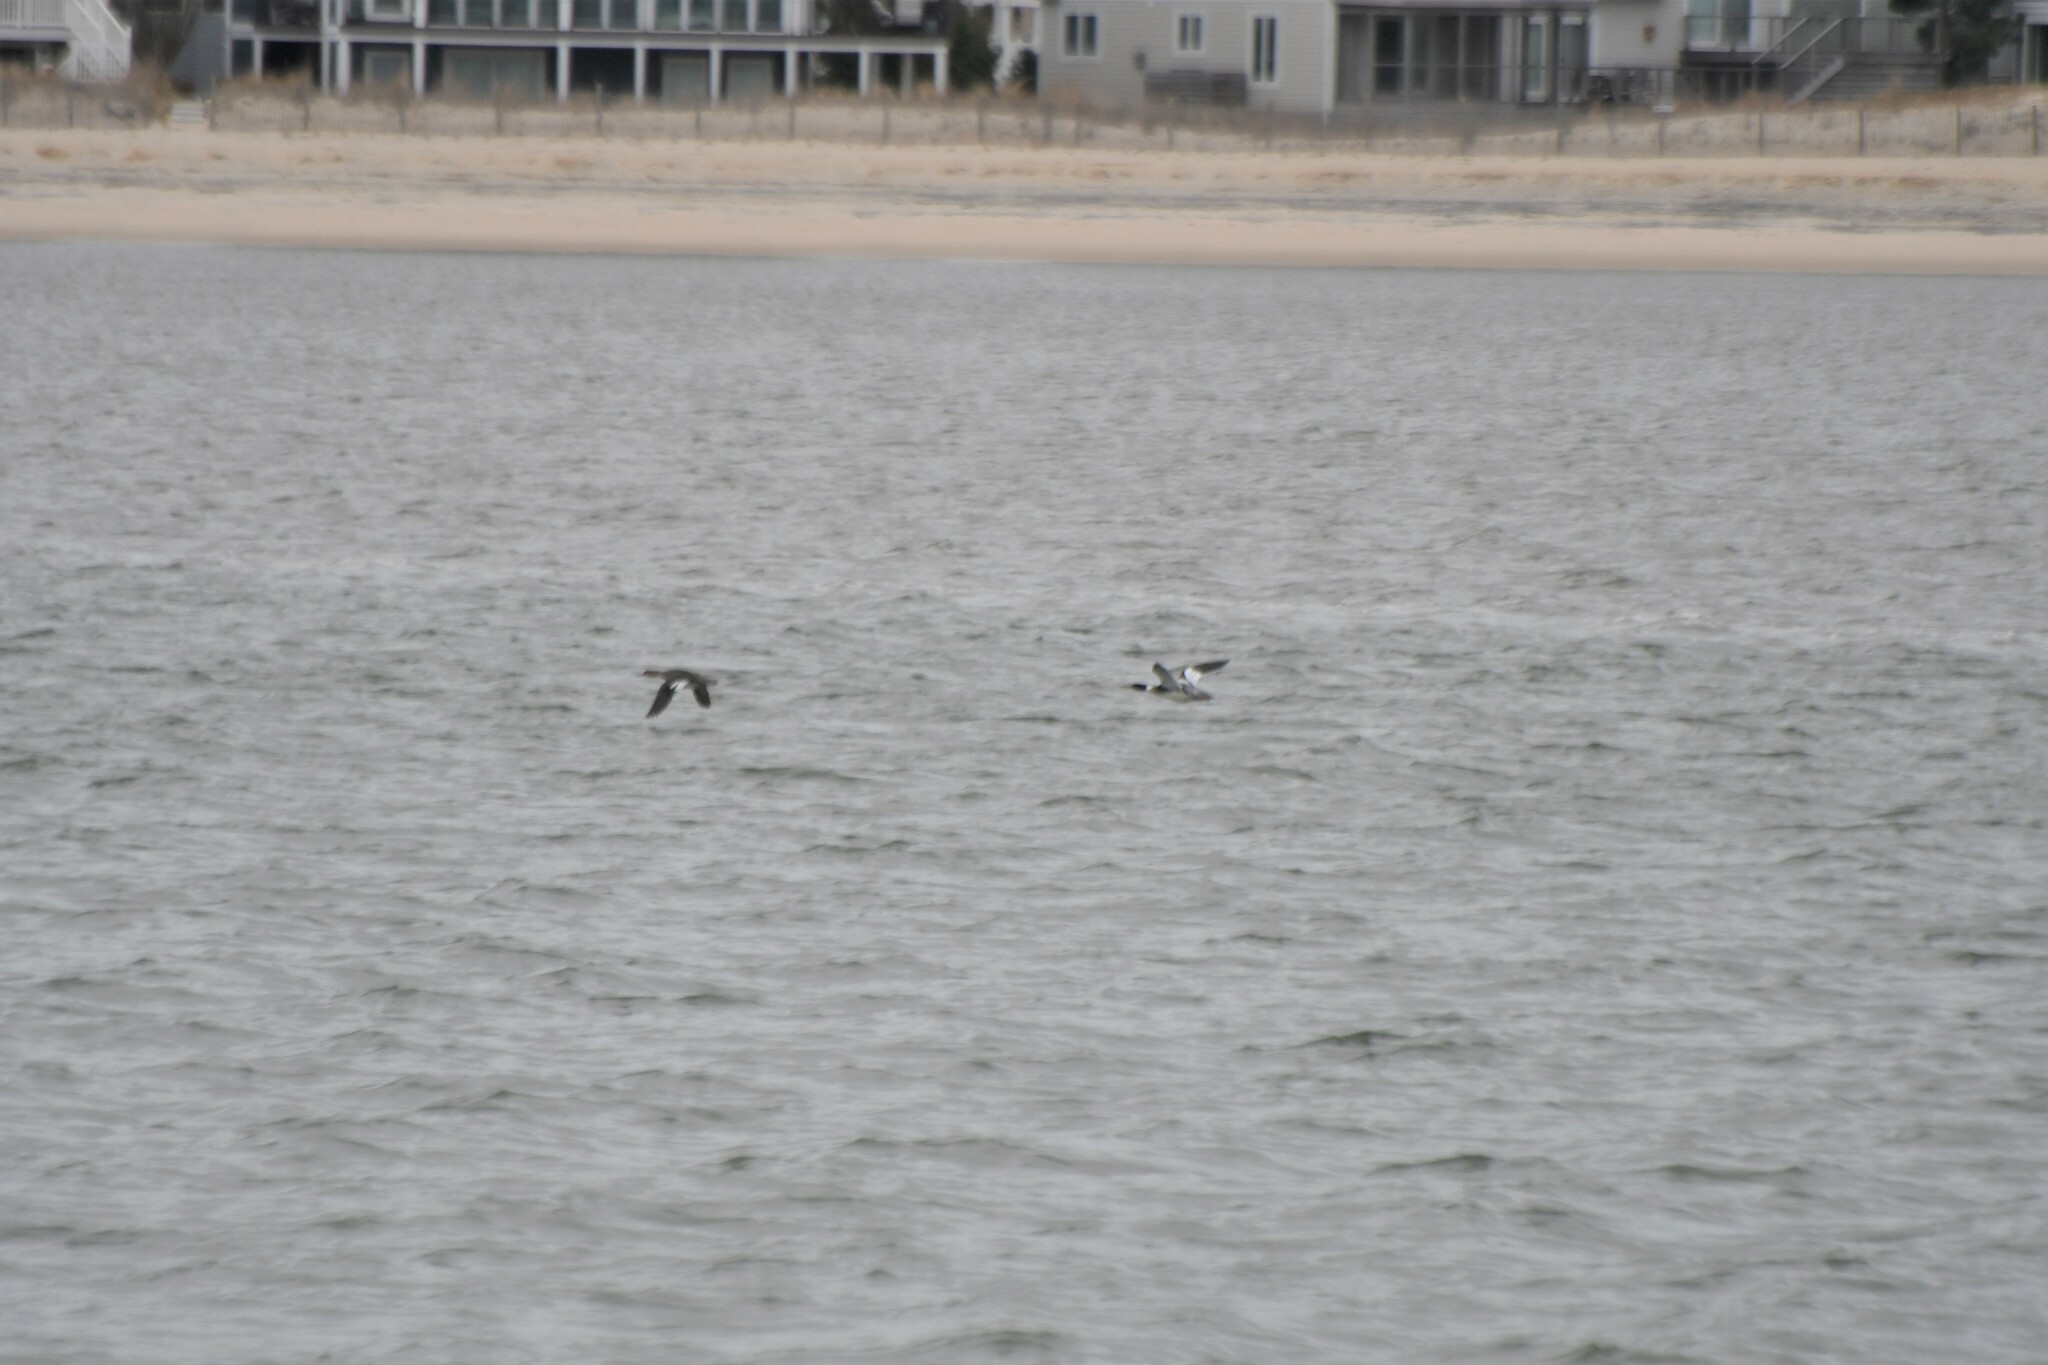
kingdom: Animalia
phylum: Chordata
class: Aves
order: Anseriformes
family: Anatidae
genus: Mergus
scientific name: Mergus serrator
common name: Red-breasted merganser
